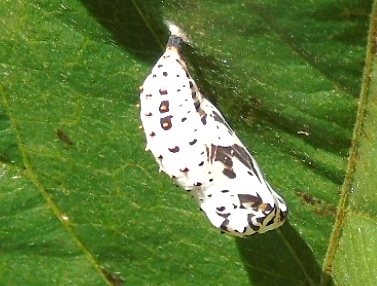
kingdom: Animalia
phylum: Arthropoda
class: Insecta
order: Lepidoptera
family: Nymphalidae
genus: Chlosyne
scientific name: Chlosyne lacinia
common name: Bordered patch
